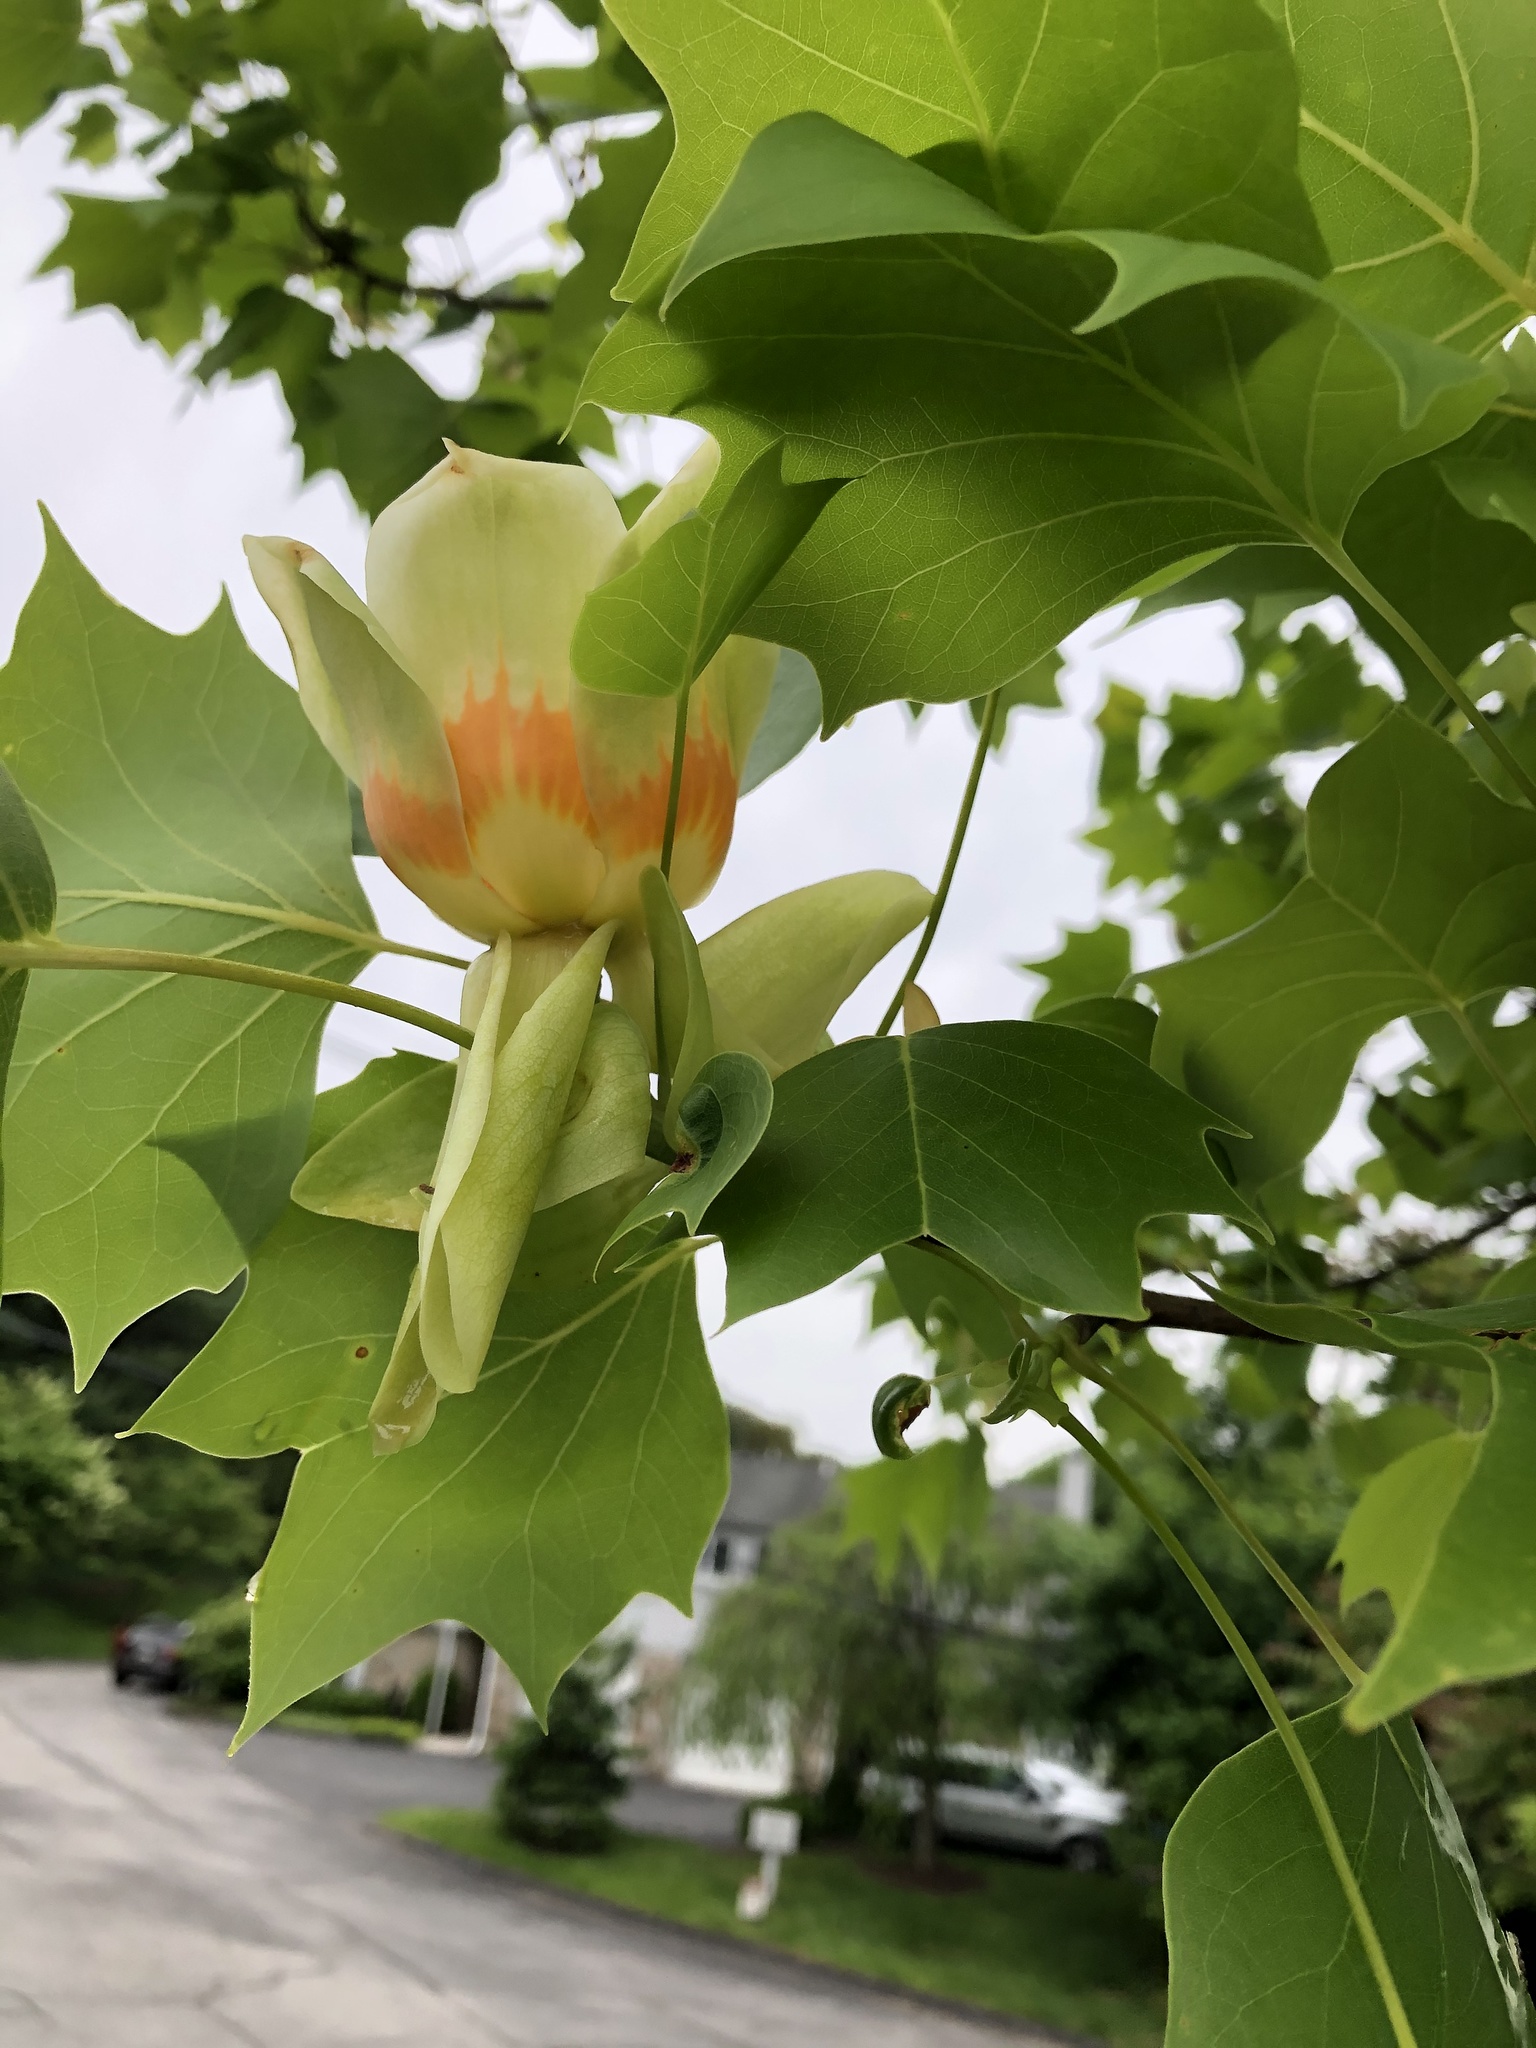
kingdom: Plantae
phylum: Tracheophyta
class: Magnoliopsida
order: Magnoliales
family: Magnoliaceae
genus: Liriodendron
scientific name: Liriodendron tulipifera
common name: Tulip tree
